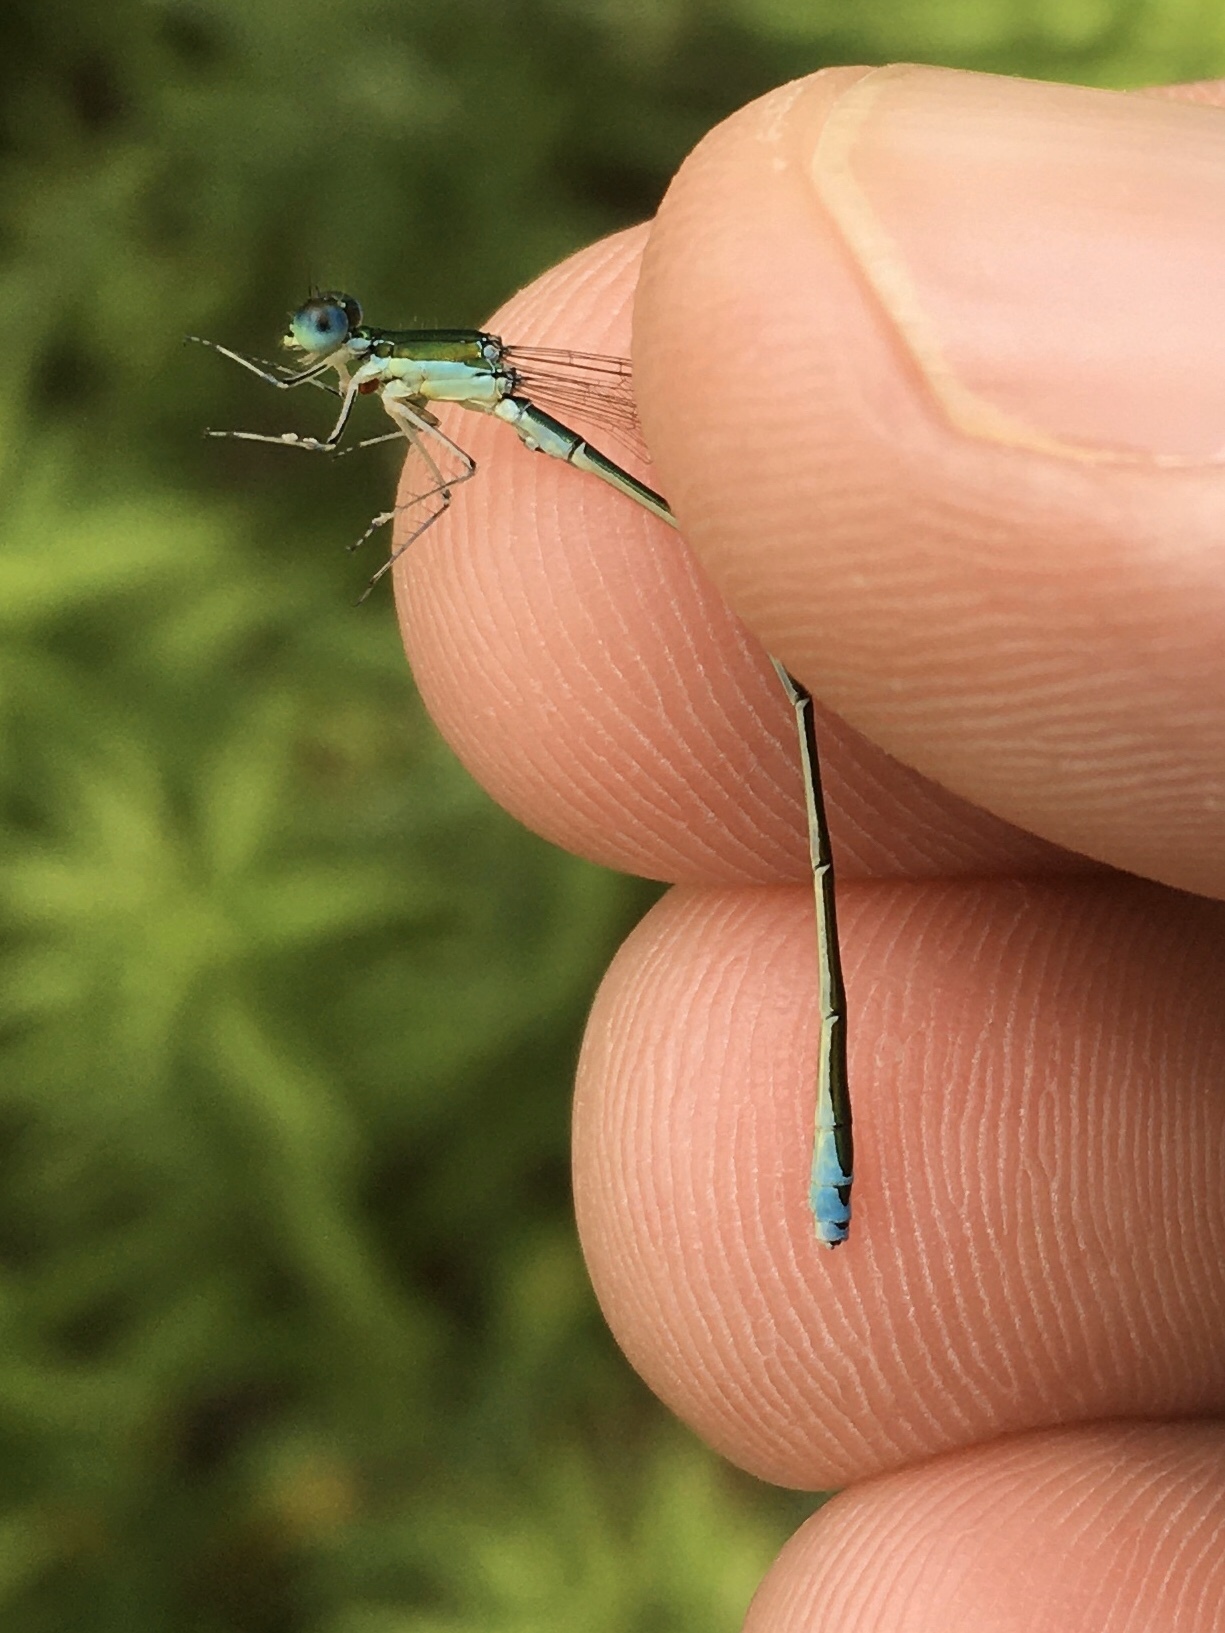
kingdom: Animalia
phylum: Arthropoda
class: Insecta
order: Odonata
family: Coenagrionidae
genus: Nehalennia
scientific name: Nehalennia irene
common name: Sedge sprite
